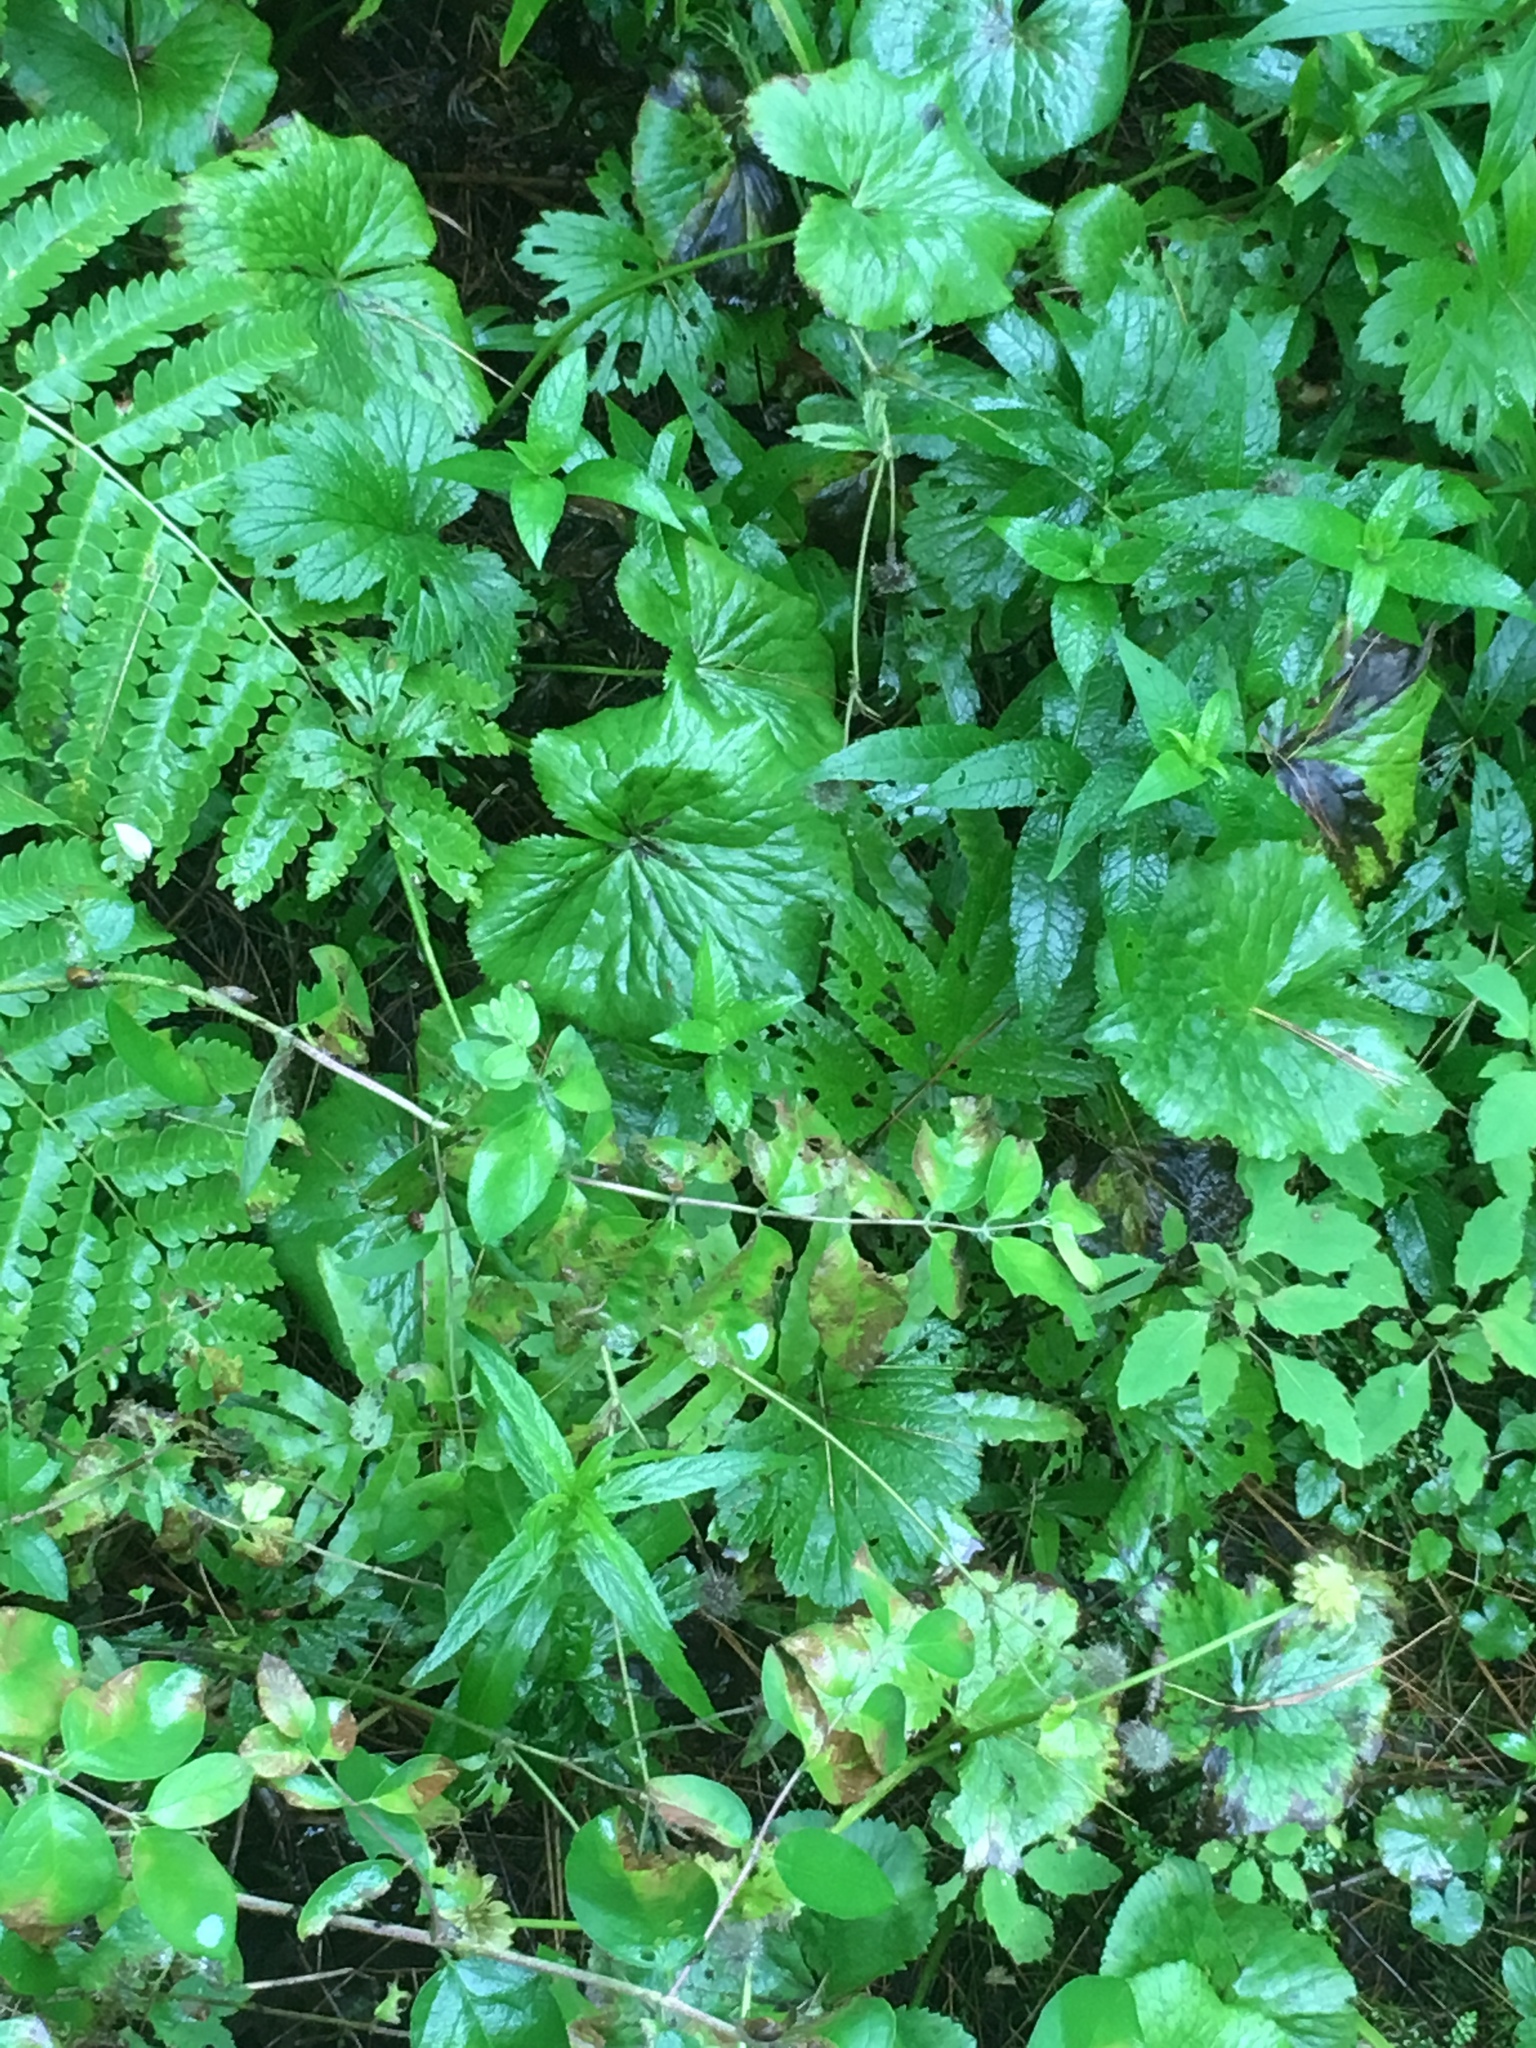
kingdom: Plantae
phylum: Tracheophyta
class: Magnoliopsida
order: Ranunculales
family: Ranunculaceae
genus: Caltha
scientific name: Caltha palustris
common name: Marsh marigold
